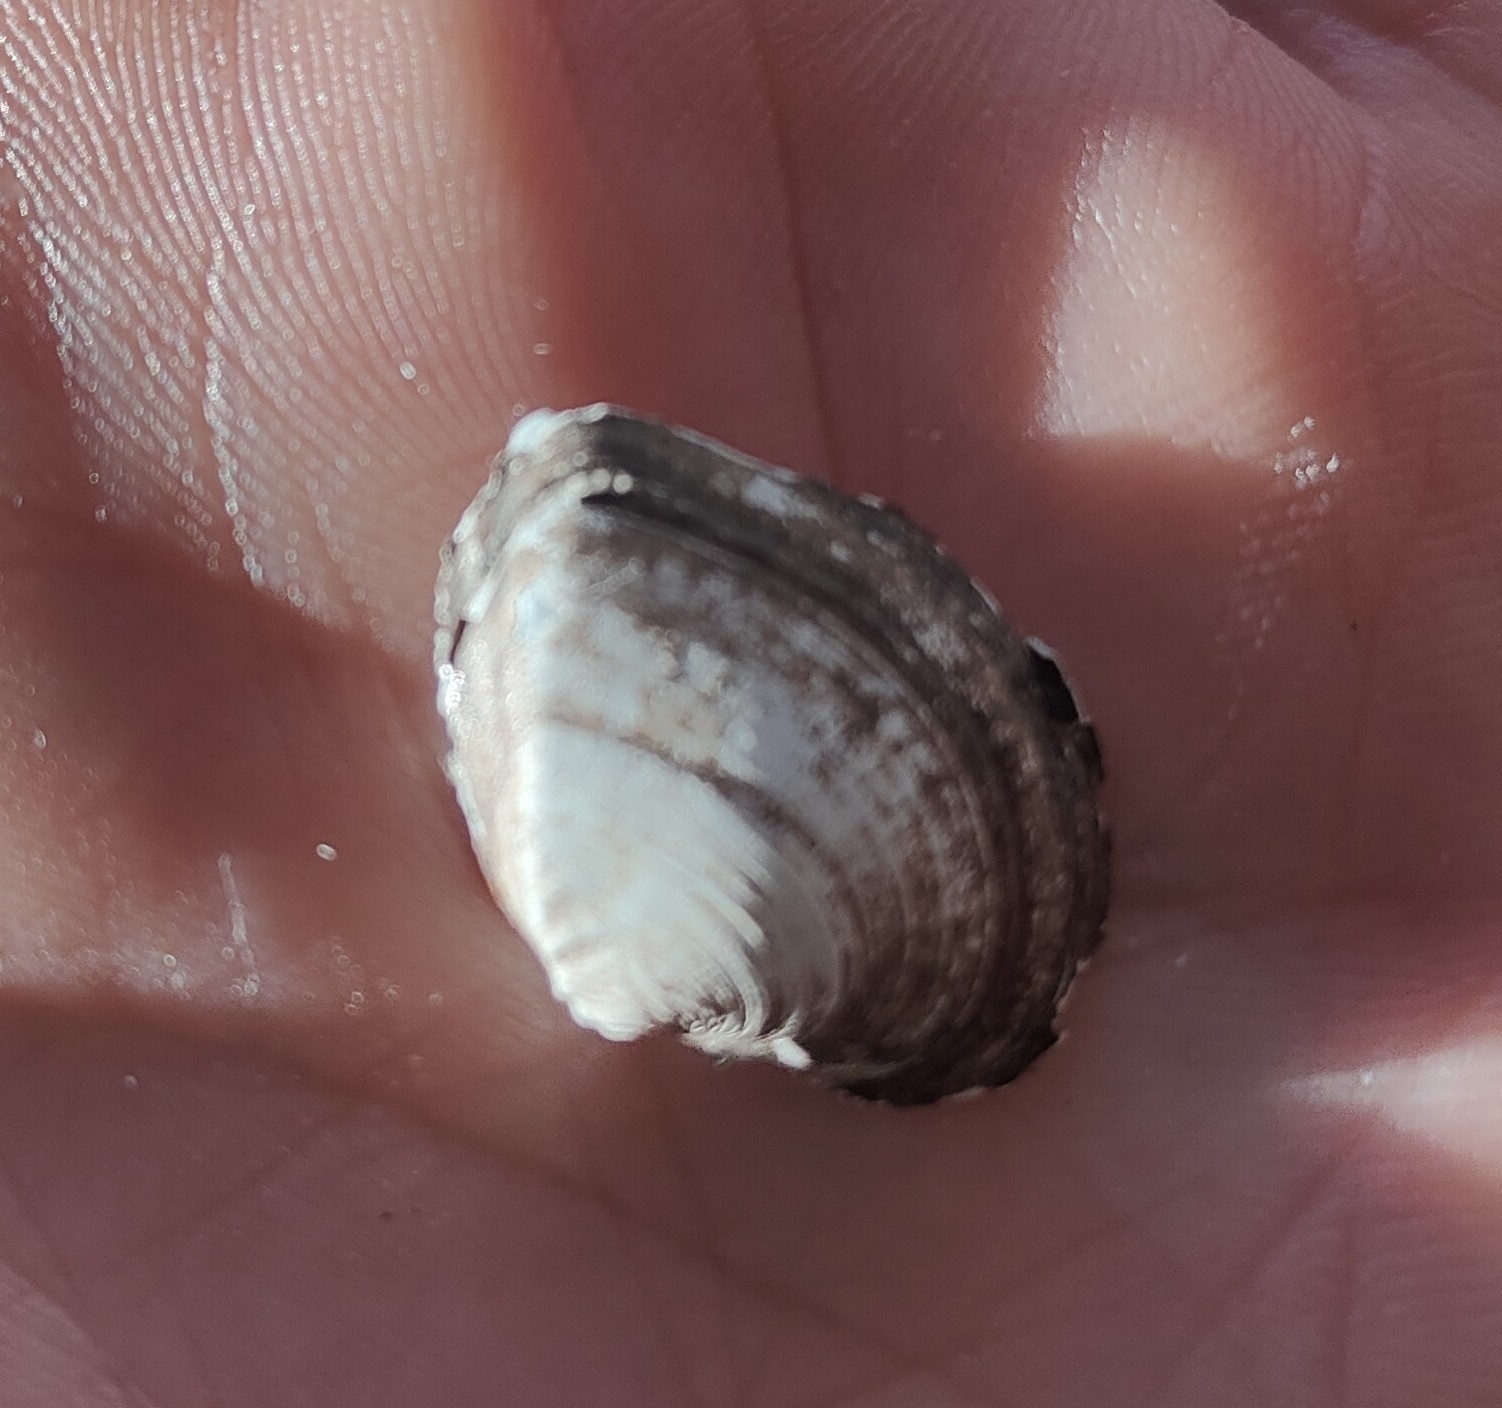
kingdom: Animalia
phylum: Mollusca
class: Bivalvia
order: Unionida
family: Unionidae
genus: Fusconaia
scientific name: Fusconaia flava
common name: Wabash pigtoe
